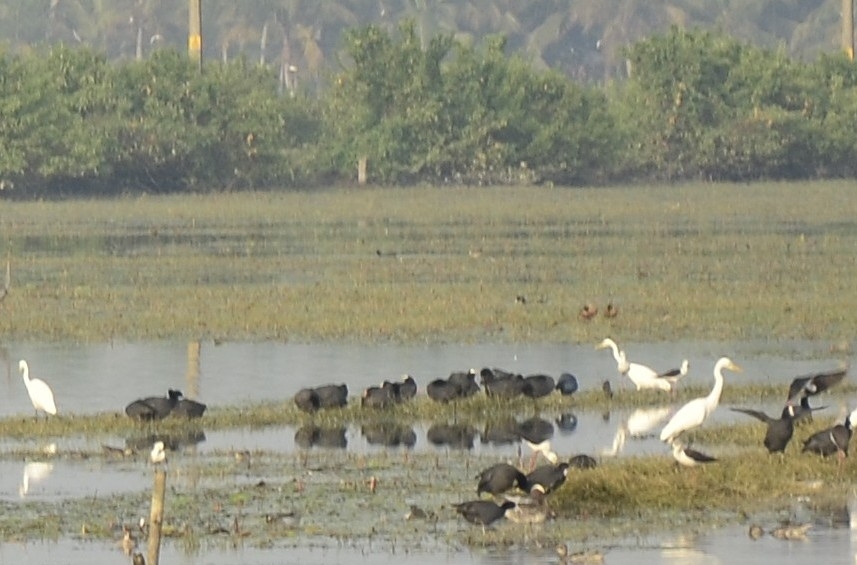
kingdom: Animalia
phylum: Chordata
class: Aves
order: Gruiformes
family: Rallidae
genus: Fulica
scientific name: Fulica atra
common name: Eurasian coot
